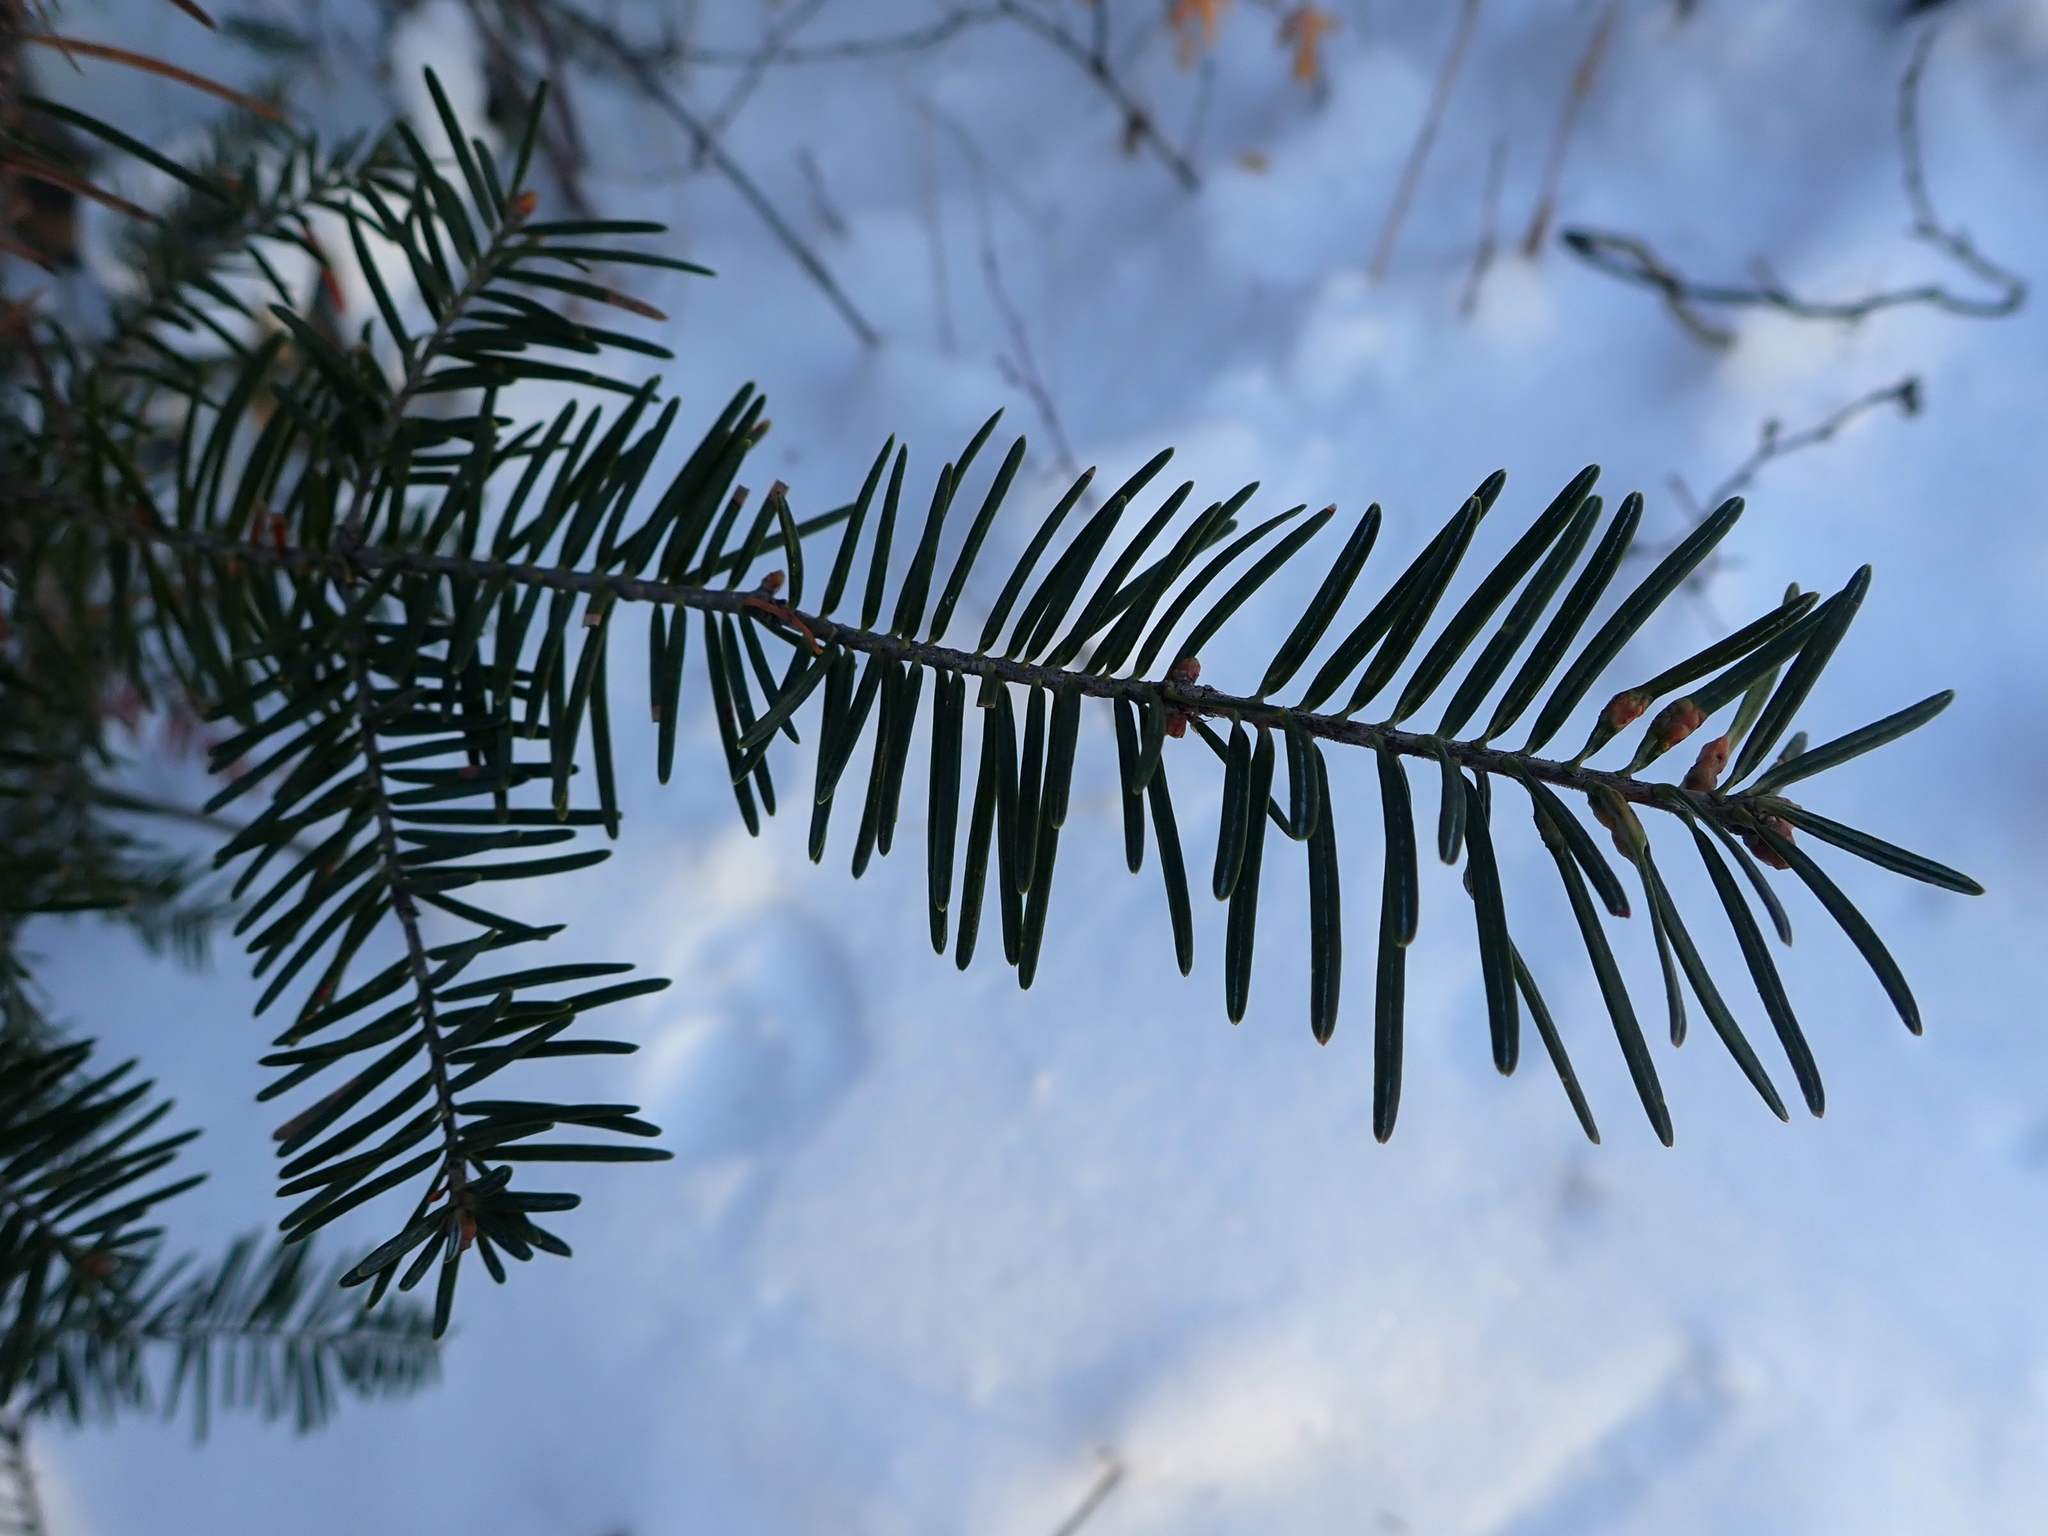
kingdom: Plantae
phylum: Tracheophyta
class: Pinopsida
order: Pinales
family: Pinaceae
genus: Abies
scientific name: Abies balsamea
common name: Balsam fir
